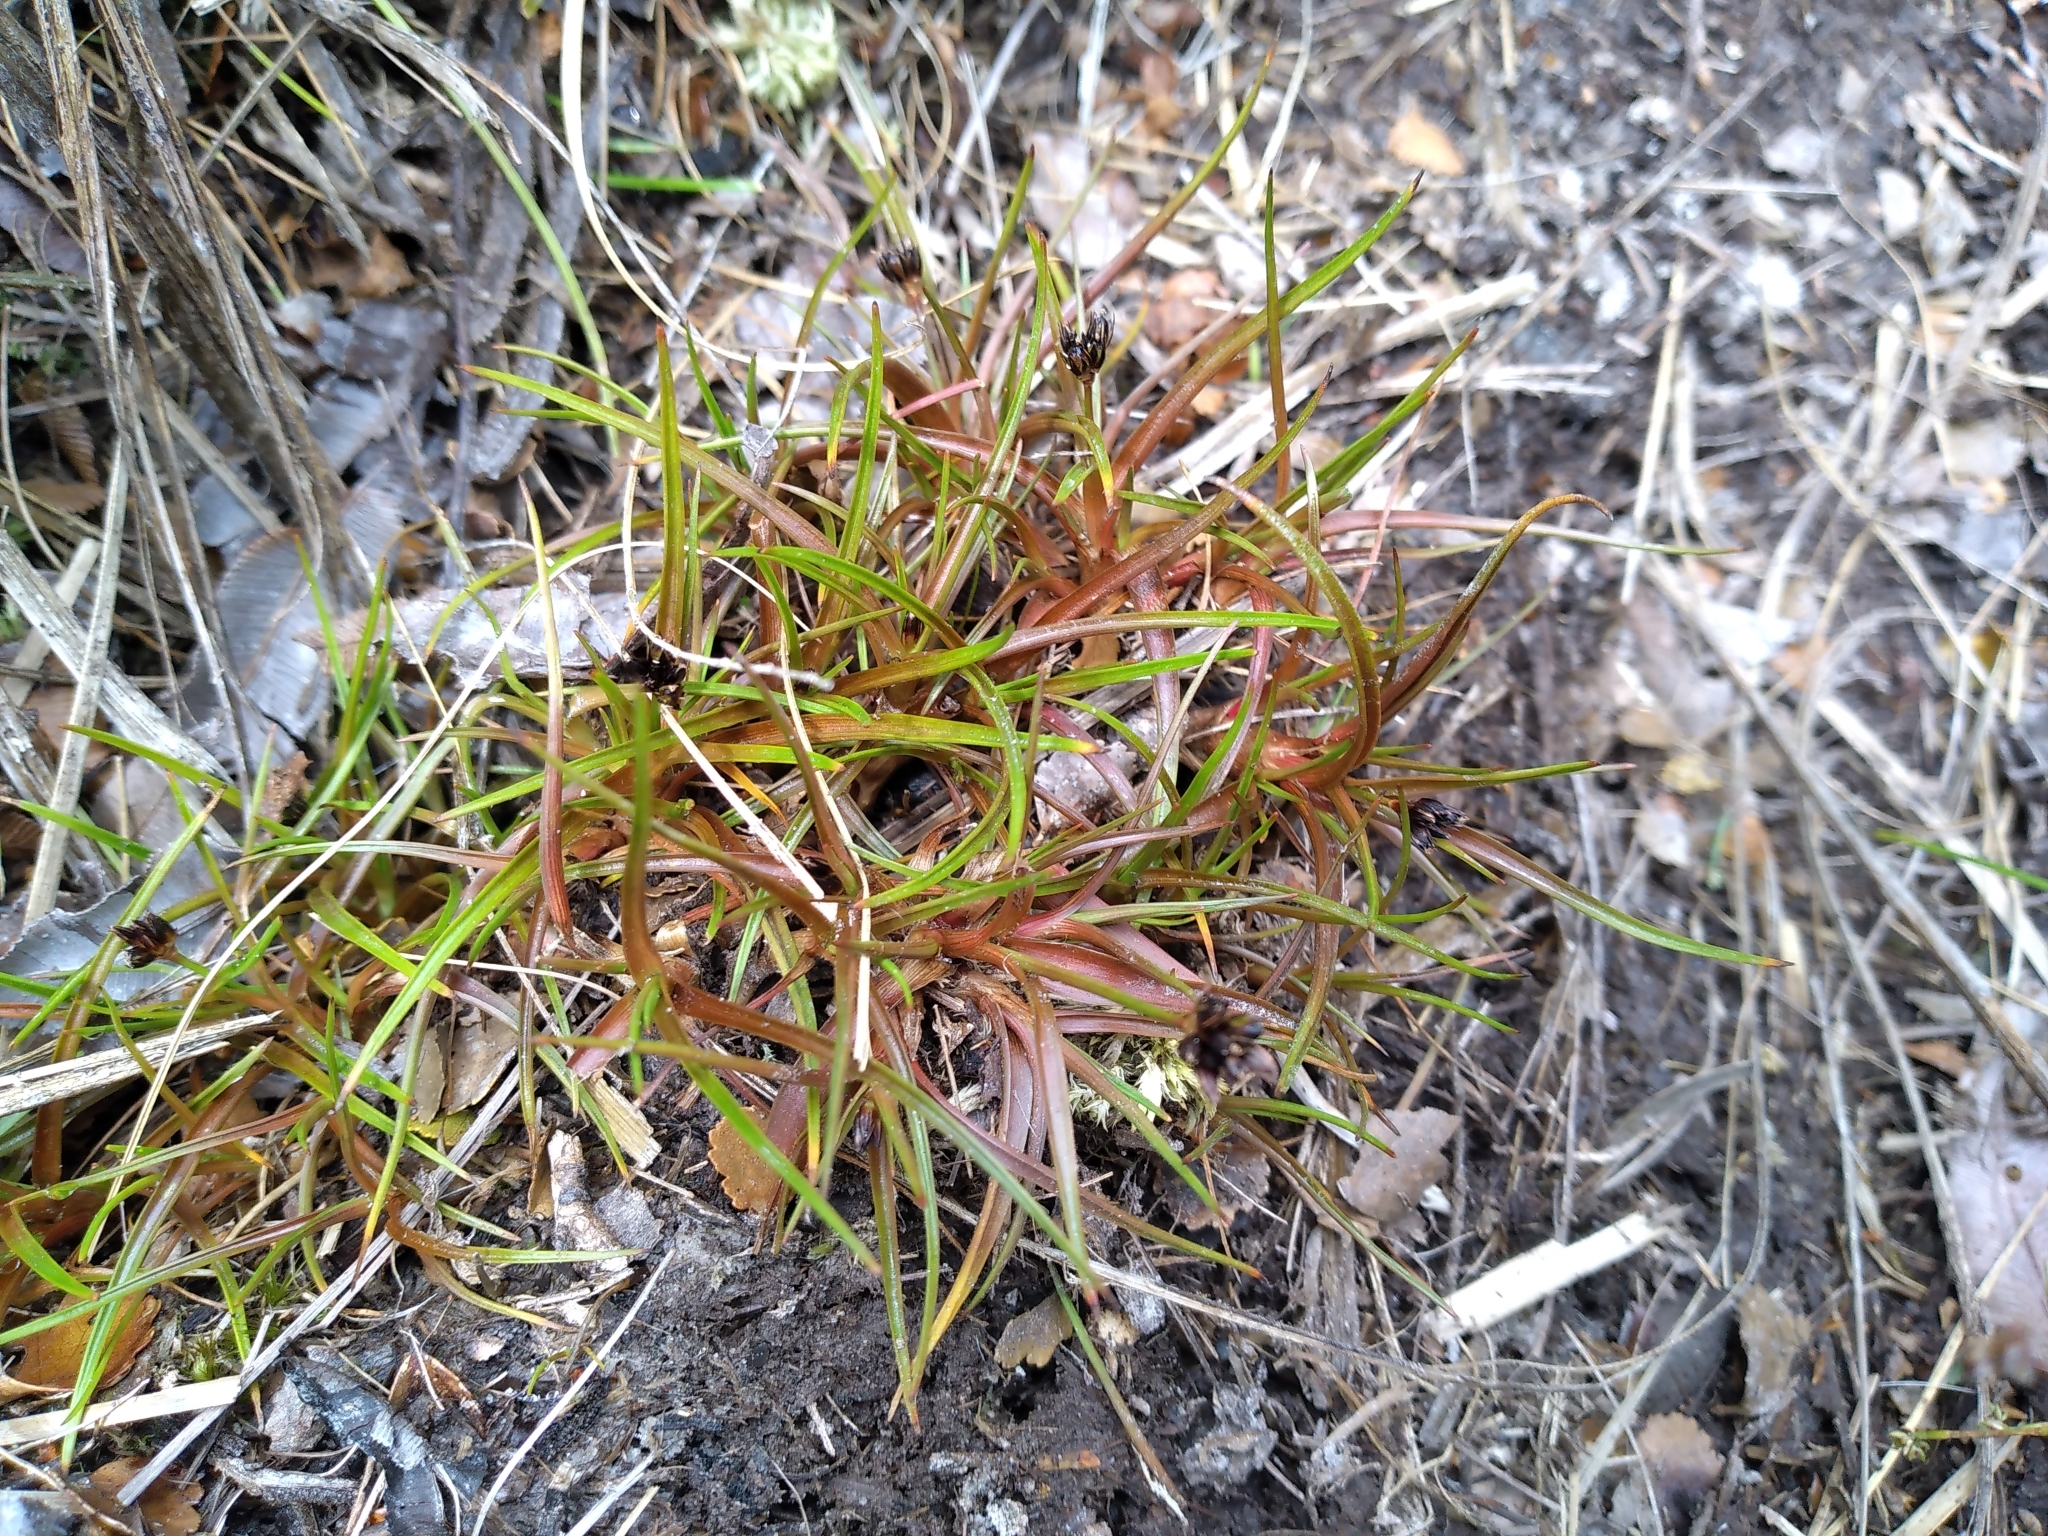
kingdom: Plantae
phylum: Tracheophyta
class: Liliopsida
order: Poales
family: Juncaceae
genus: Juncus
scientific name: Juncus antarcticus
